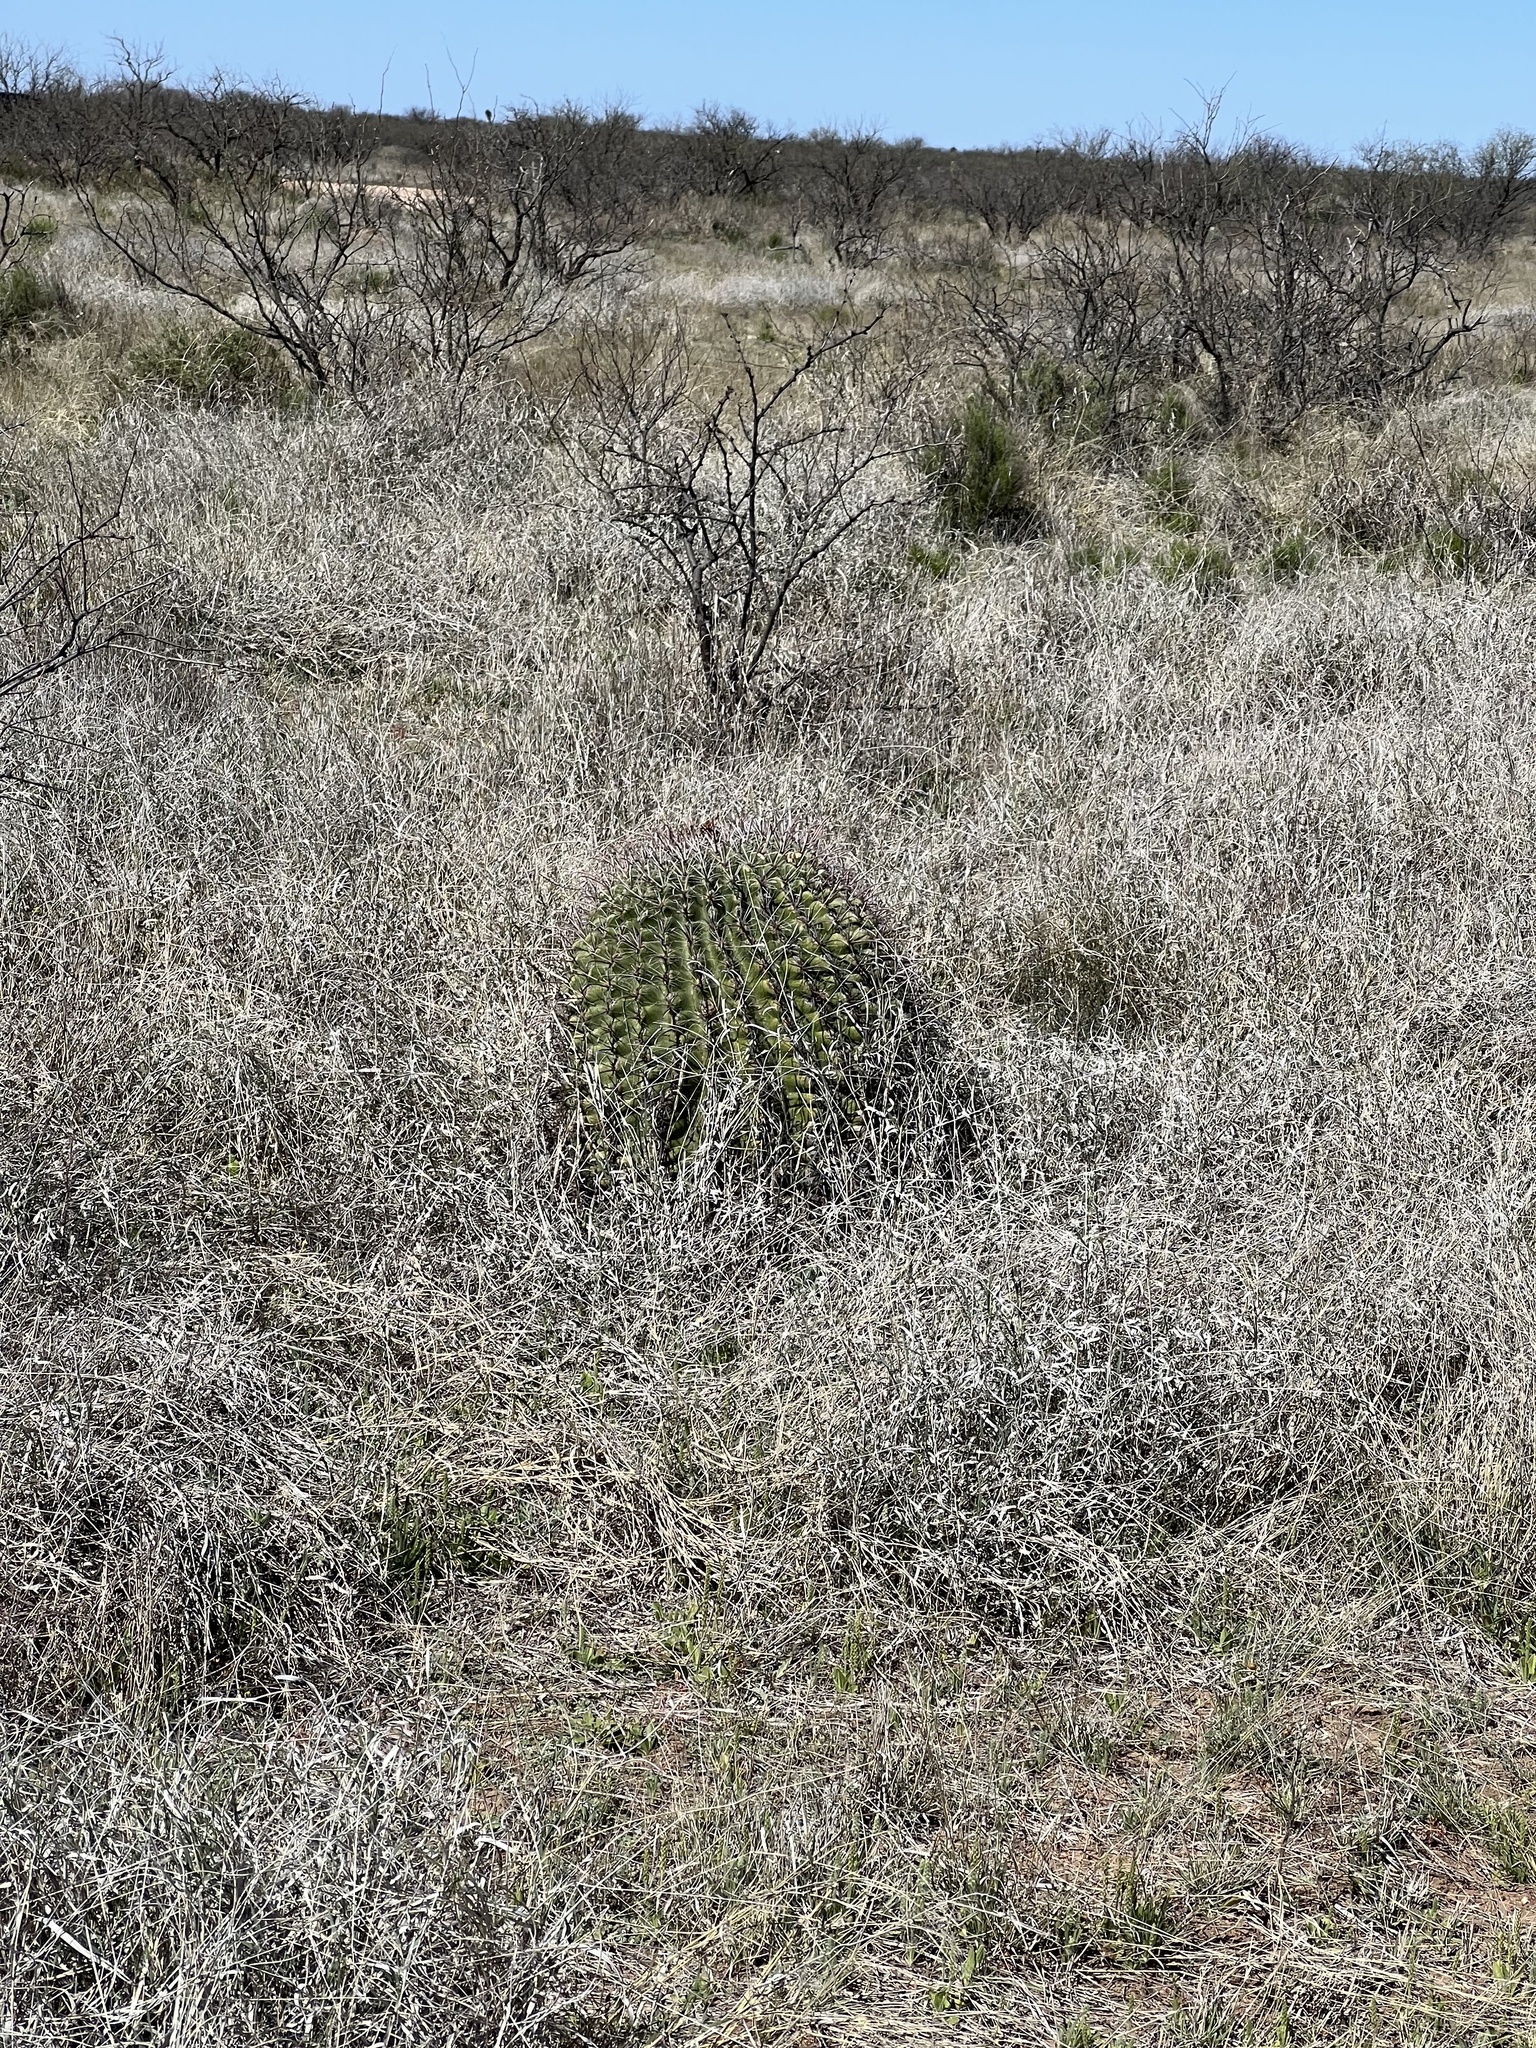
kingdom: Plantae
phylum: Tracheophyta
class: Magnoliopsida
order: Caryophyllales
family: Cactaceae
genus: Ferocactus
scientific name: Ferocactus wislizeni
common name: Candy barrel cactus
